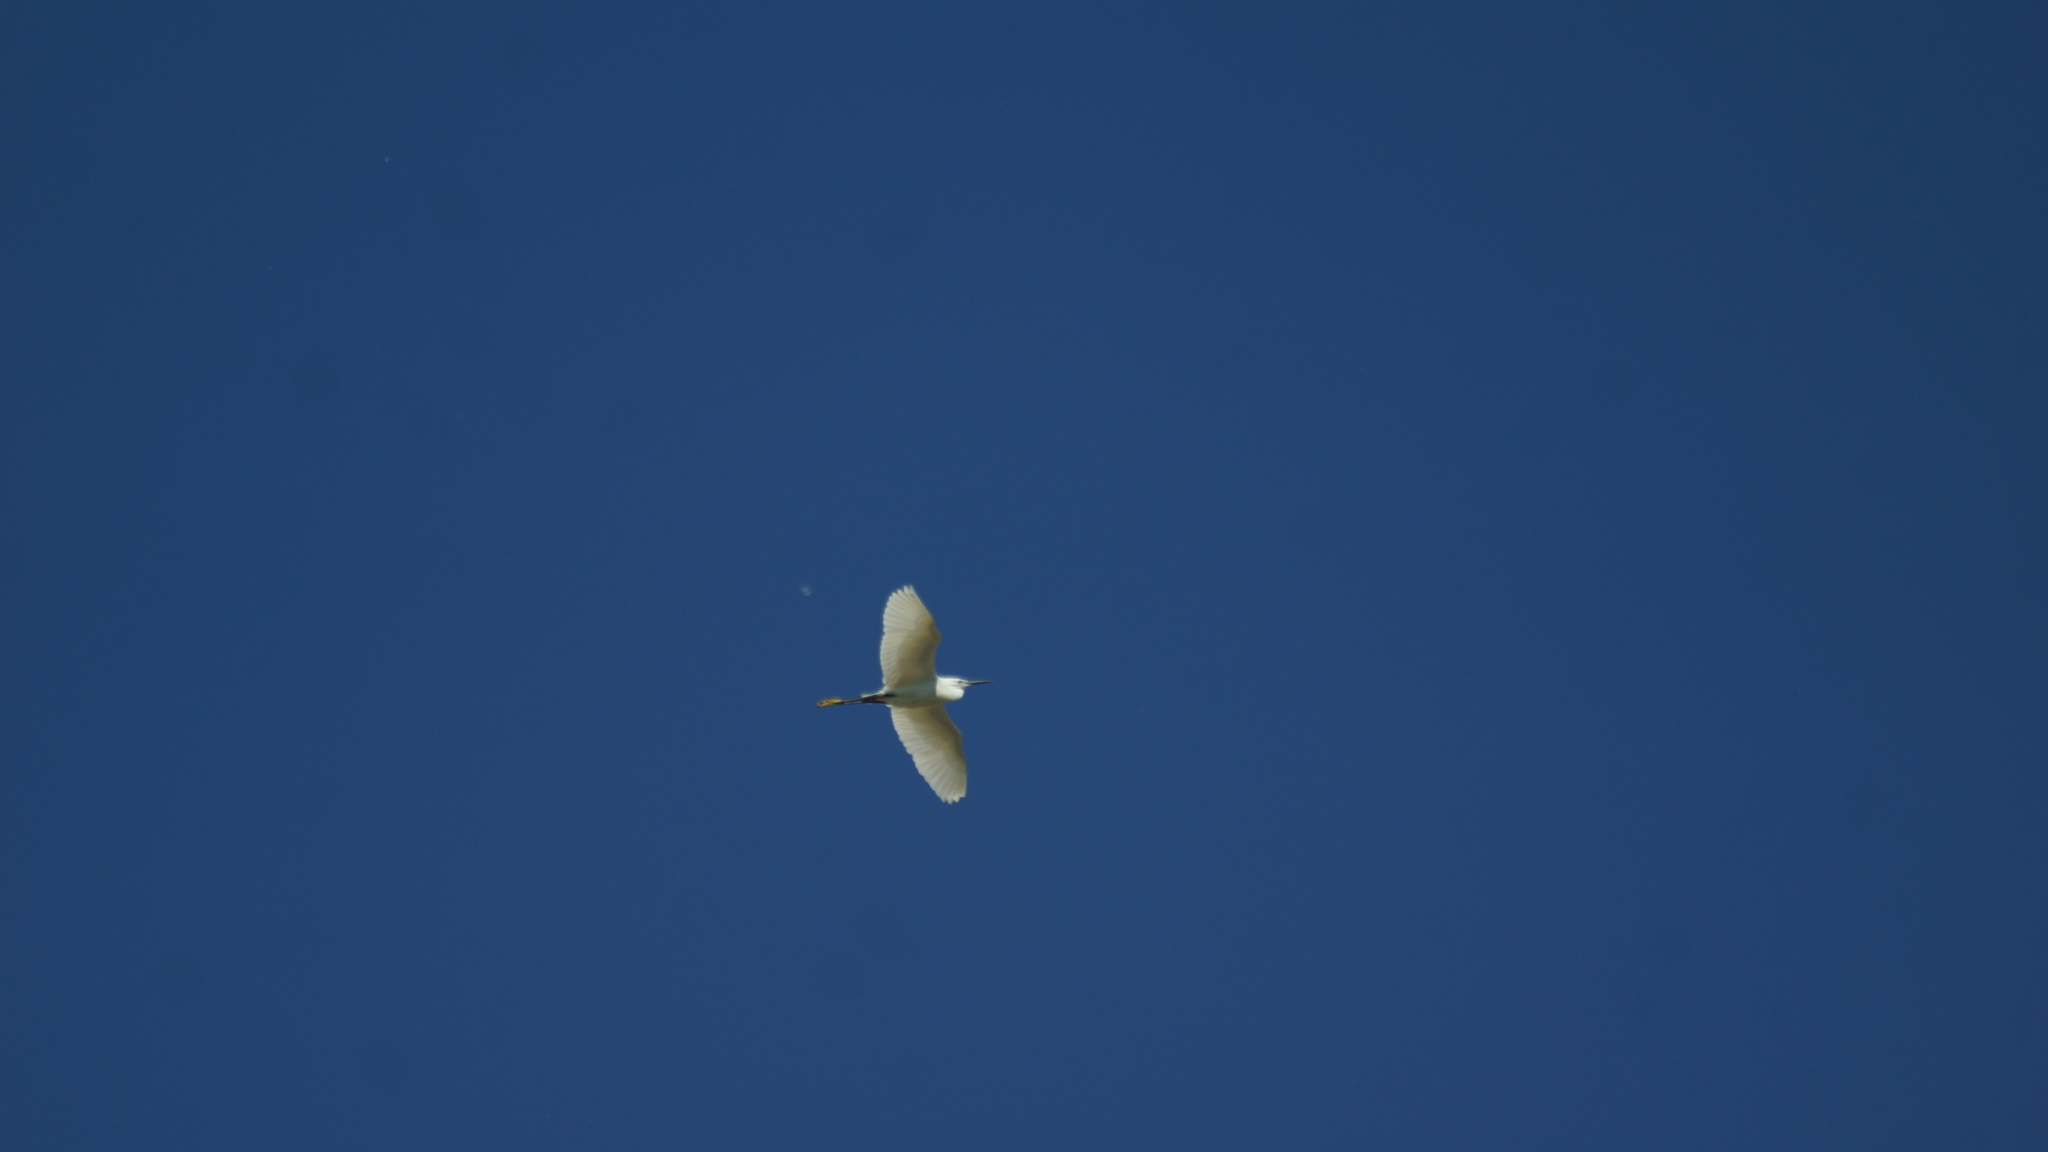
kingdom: Animalia
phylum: Chordata
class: Aves
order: Pelecaniformes
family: Ardeidae
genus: Egretta
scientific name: Egretta garzetta
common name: Little egret
